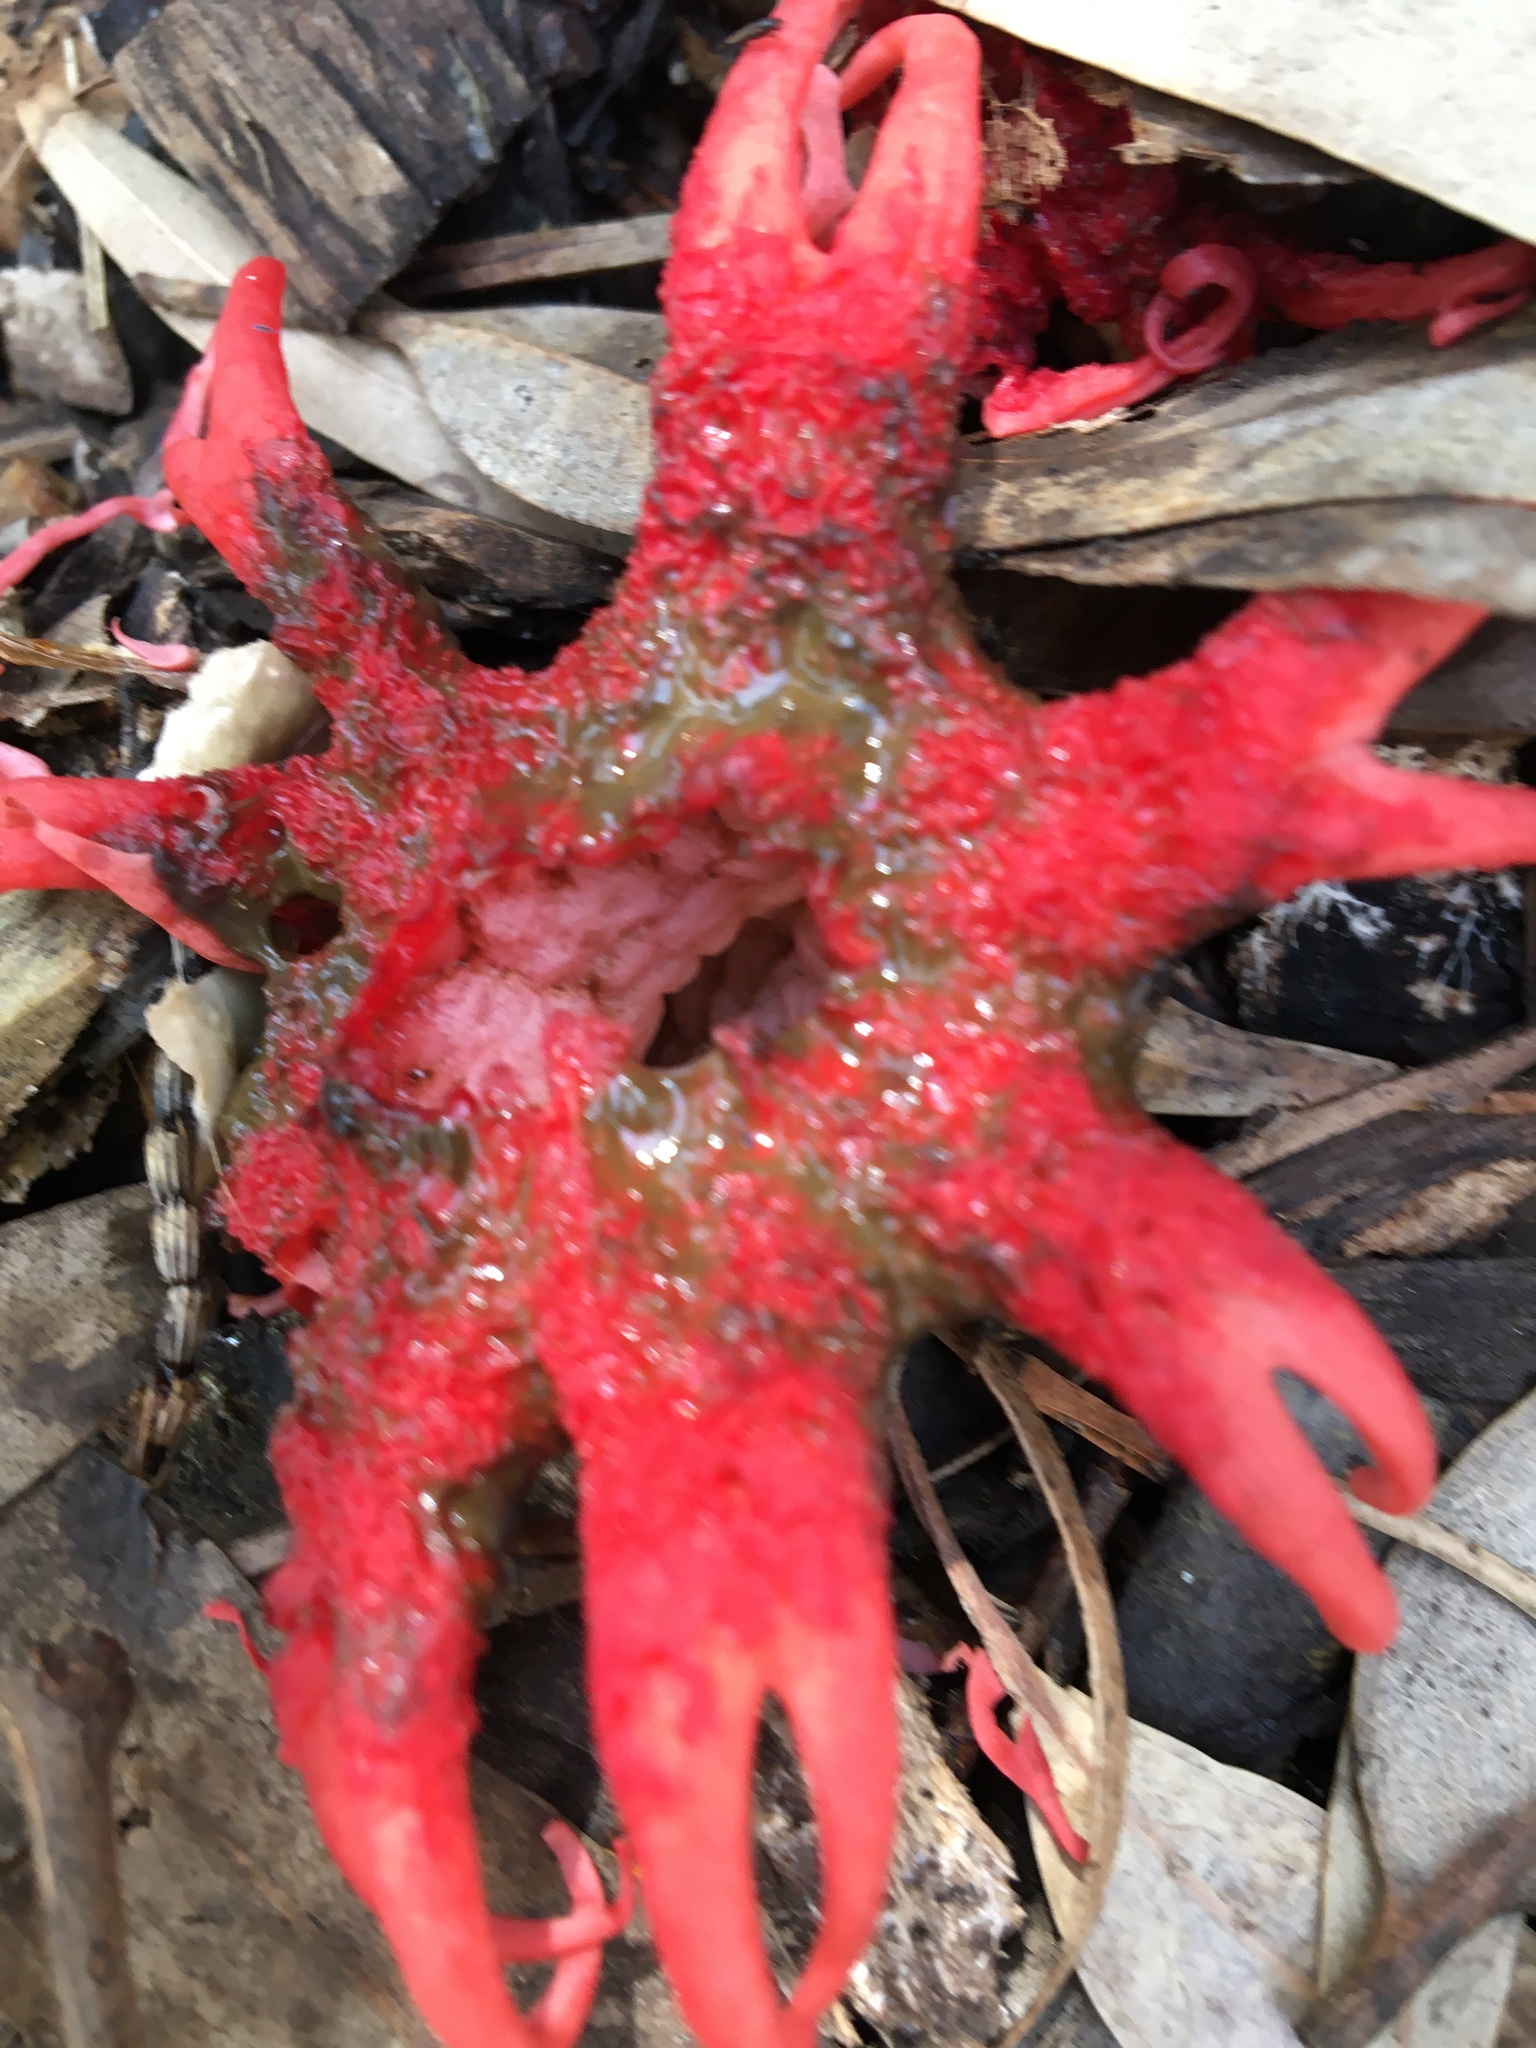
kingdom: Fungi
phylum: Basidiomycota
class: Agaricomycetes
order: Phallales
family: Phallaceae
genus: Aseroe
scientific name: Aseroe rubra
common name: Starfish fungus
